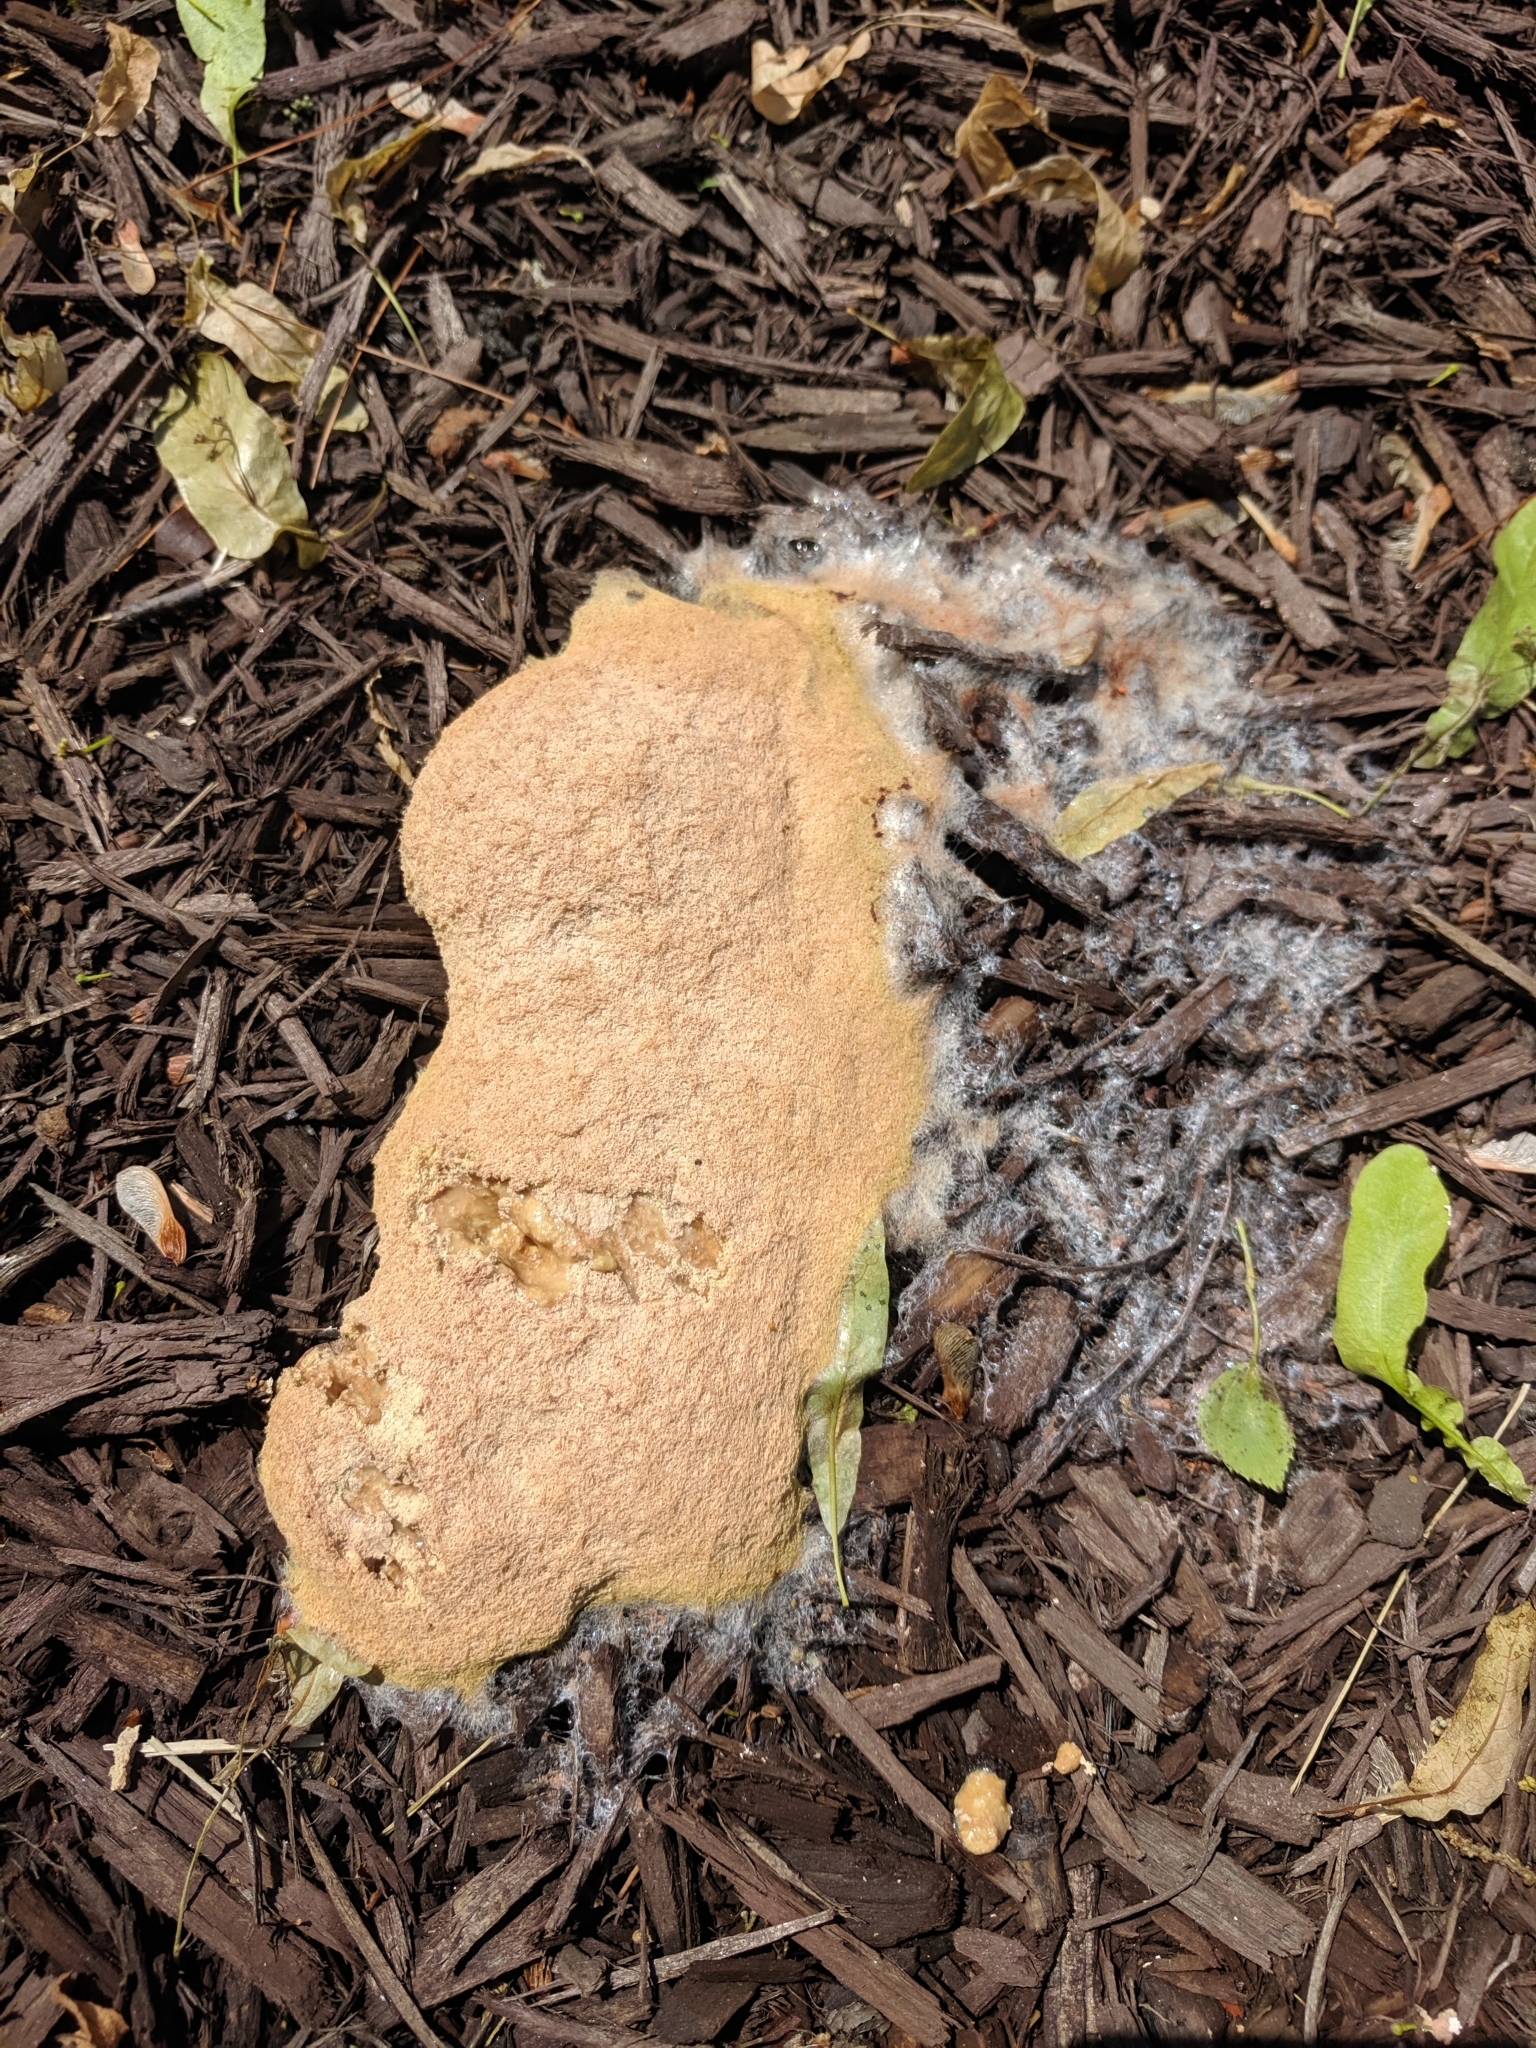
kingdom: Protozoa
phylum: Mycetozoa
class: Myxomycetes
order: Physarales
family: Physaraceae
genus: Fuligo
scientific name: Fuligo septica
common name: Dog vomit slime mold
